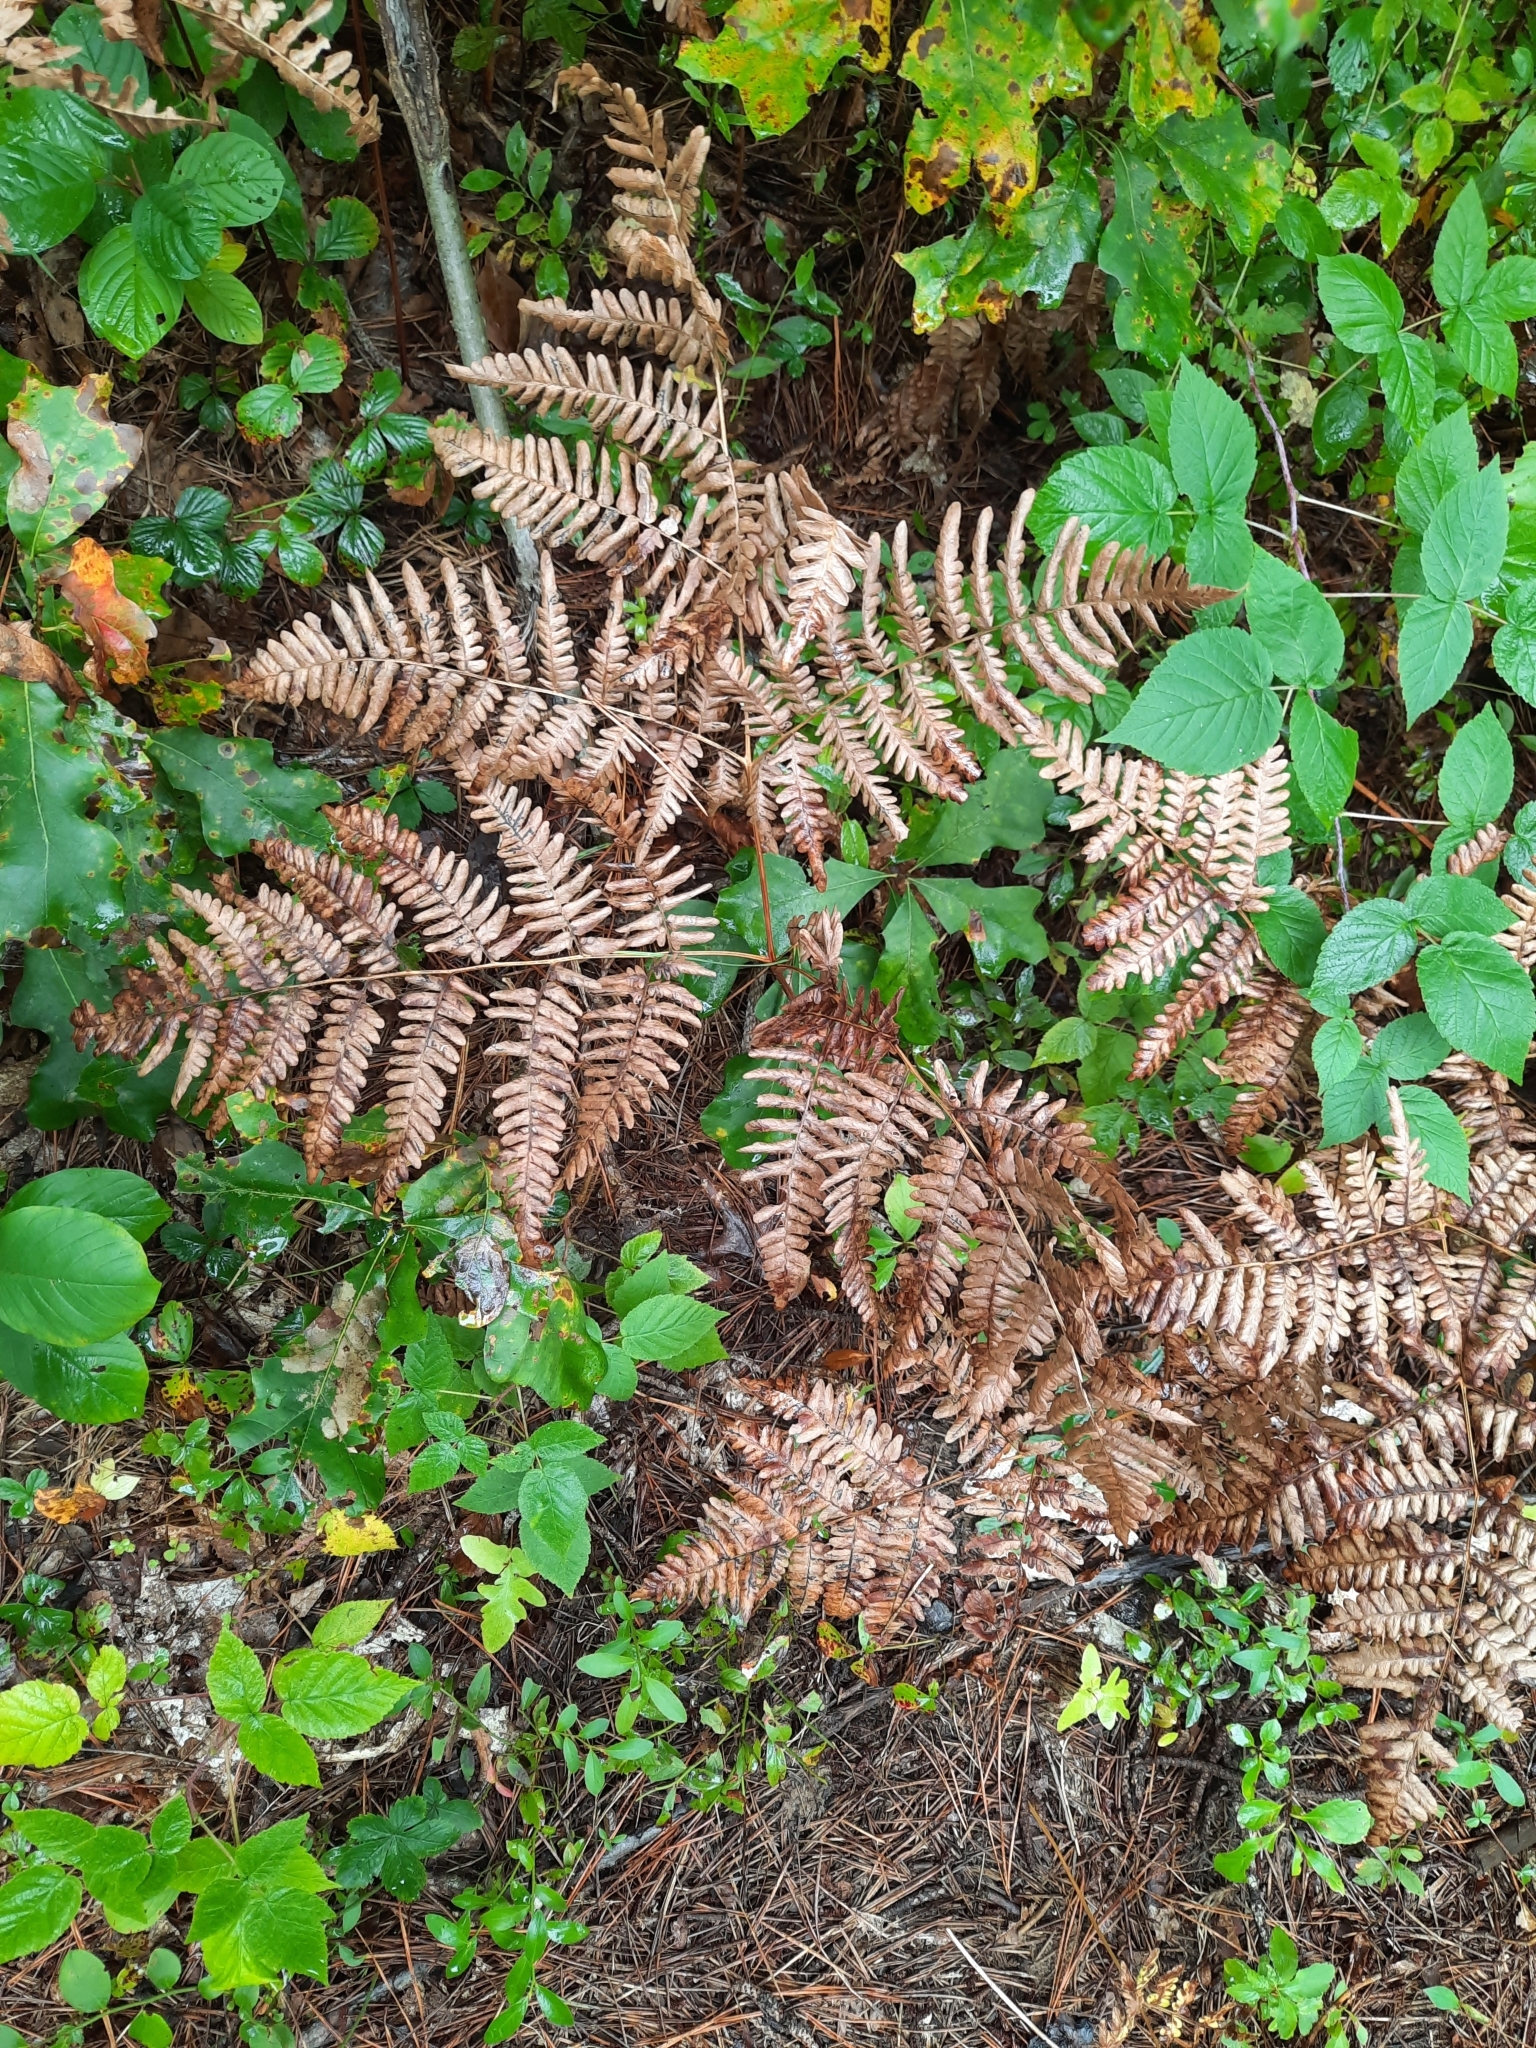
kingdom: Plantae
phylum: Tracheophyta
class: Polypodiopsida
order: Polypodiales
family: Dennstaedtiaceae
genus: Pteridium
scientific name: Pteridium aquilinum
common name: Bracken
